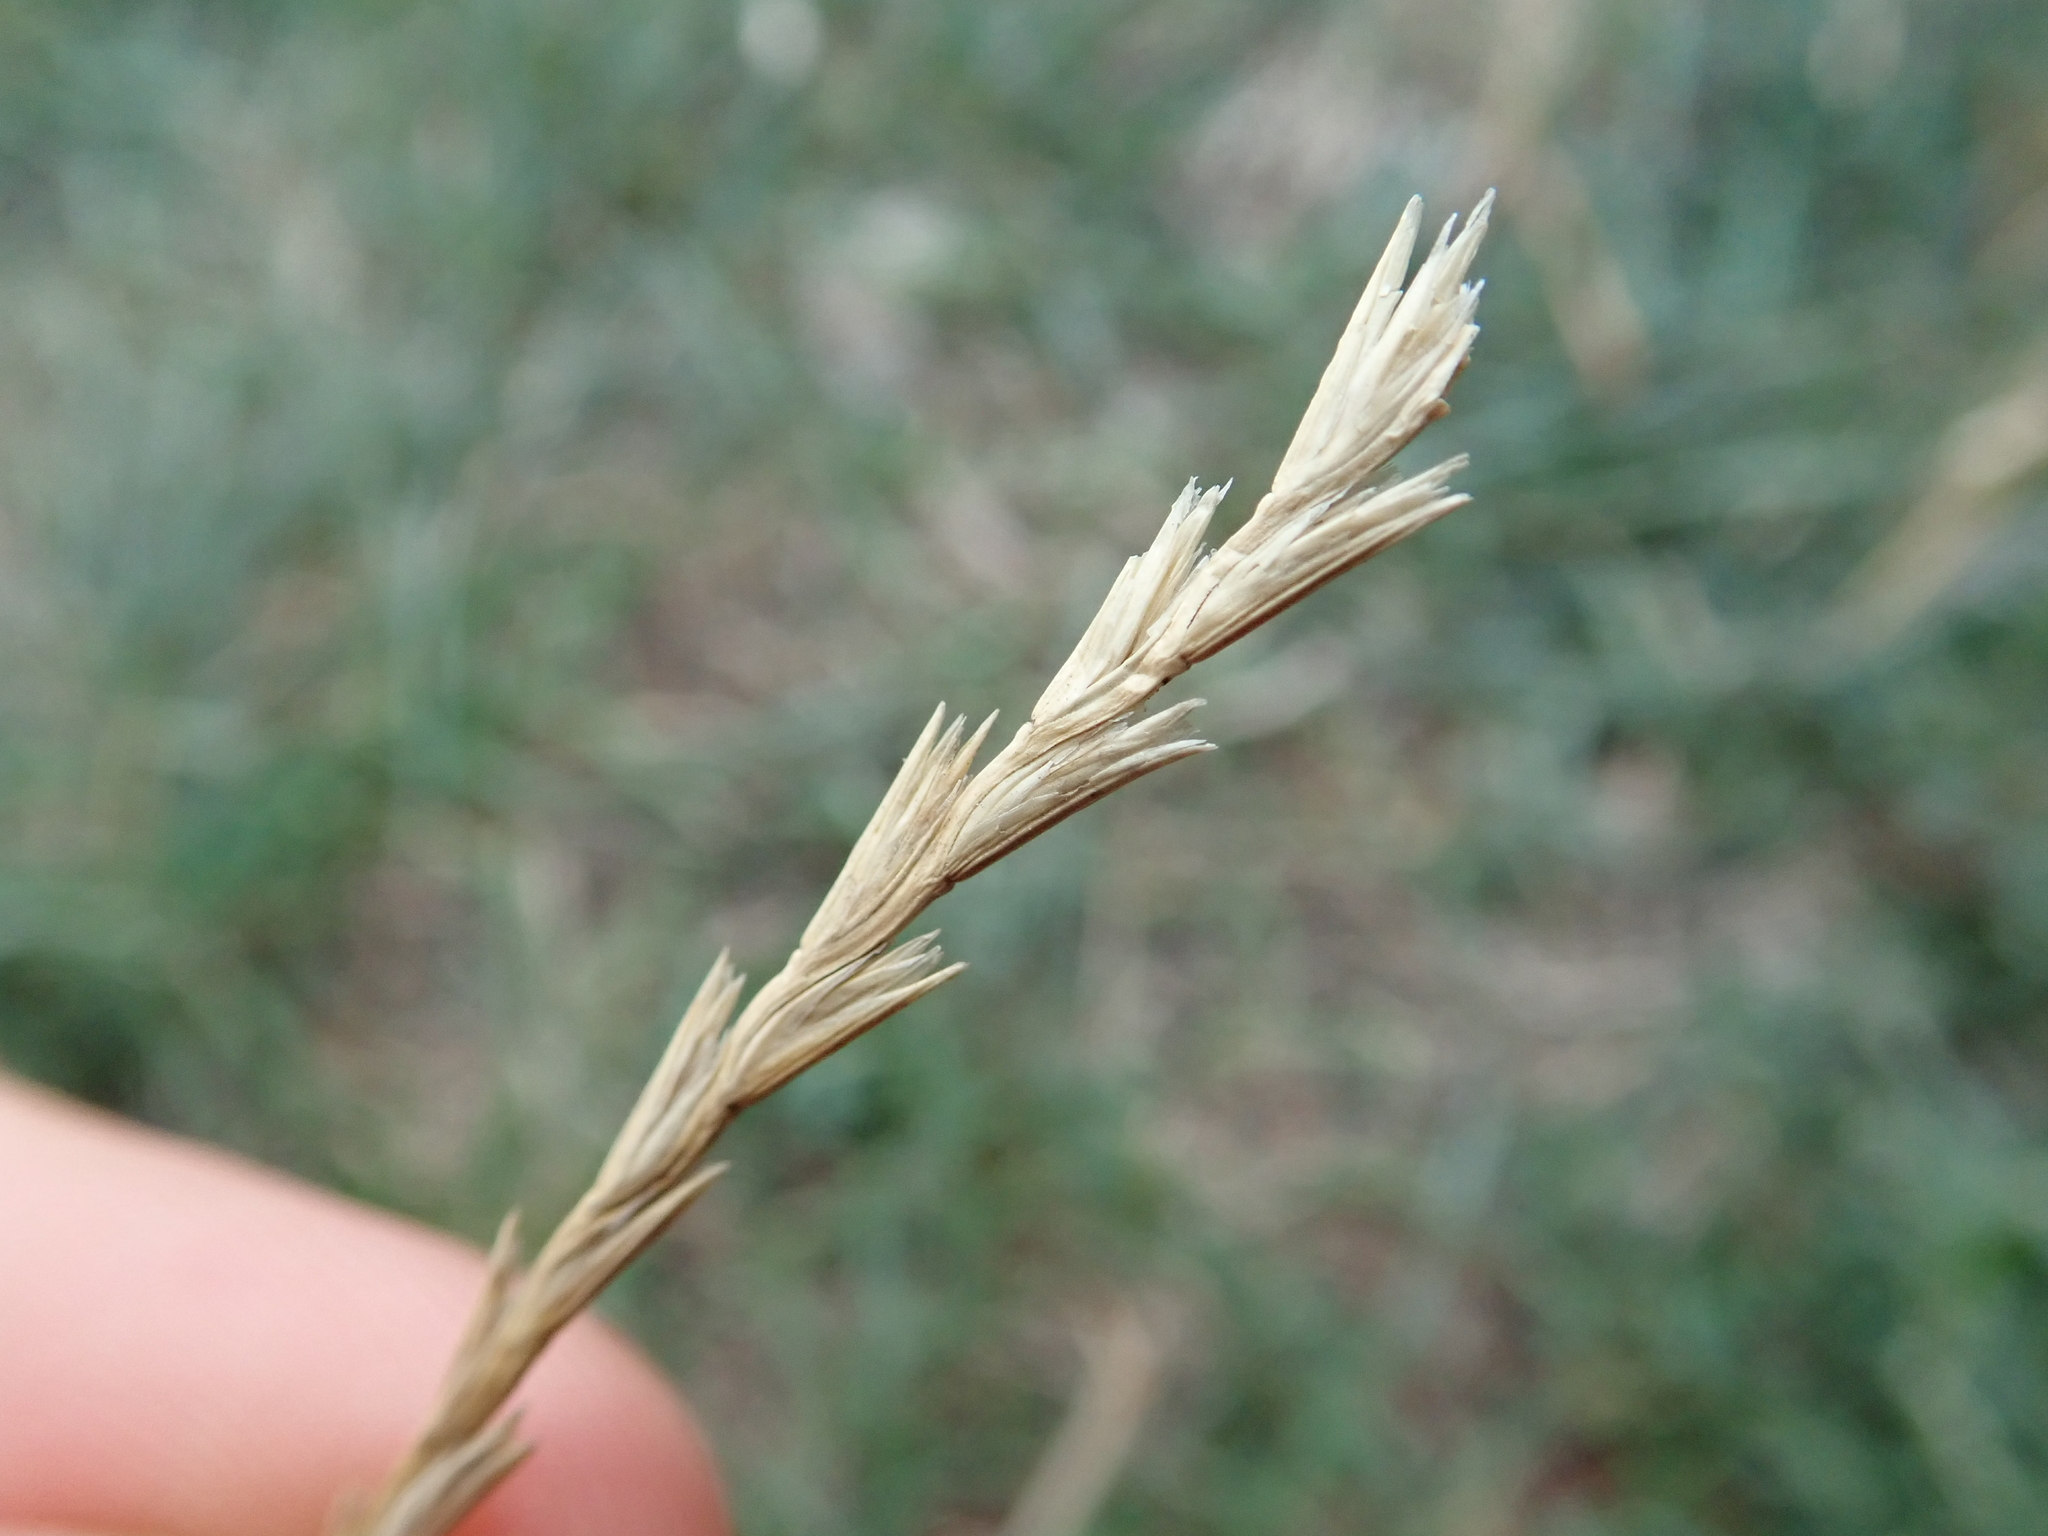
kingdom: Plantae
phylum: Tracheophyta
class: Liliopsida
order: Poales
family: Poaceae
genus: Lolium
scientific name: Lolium perenne
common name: Perennial ryegrass
